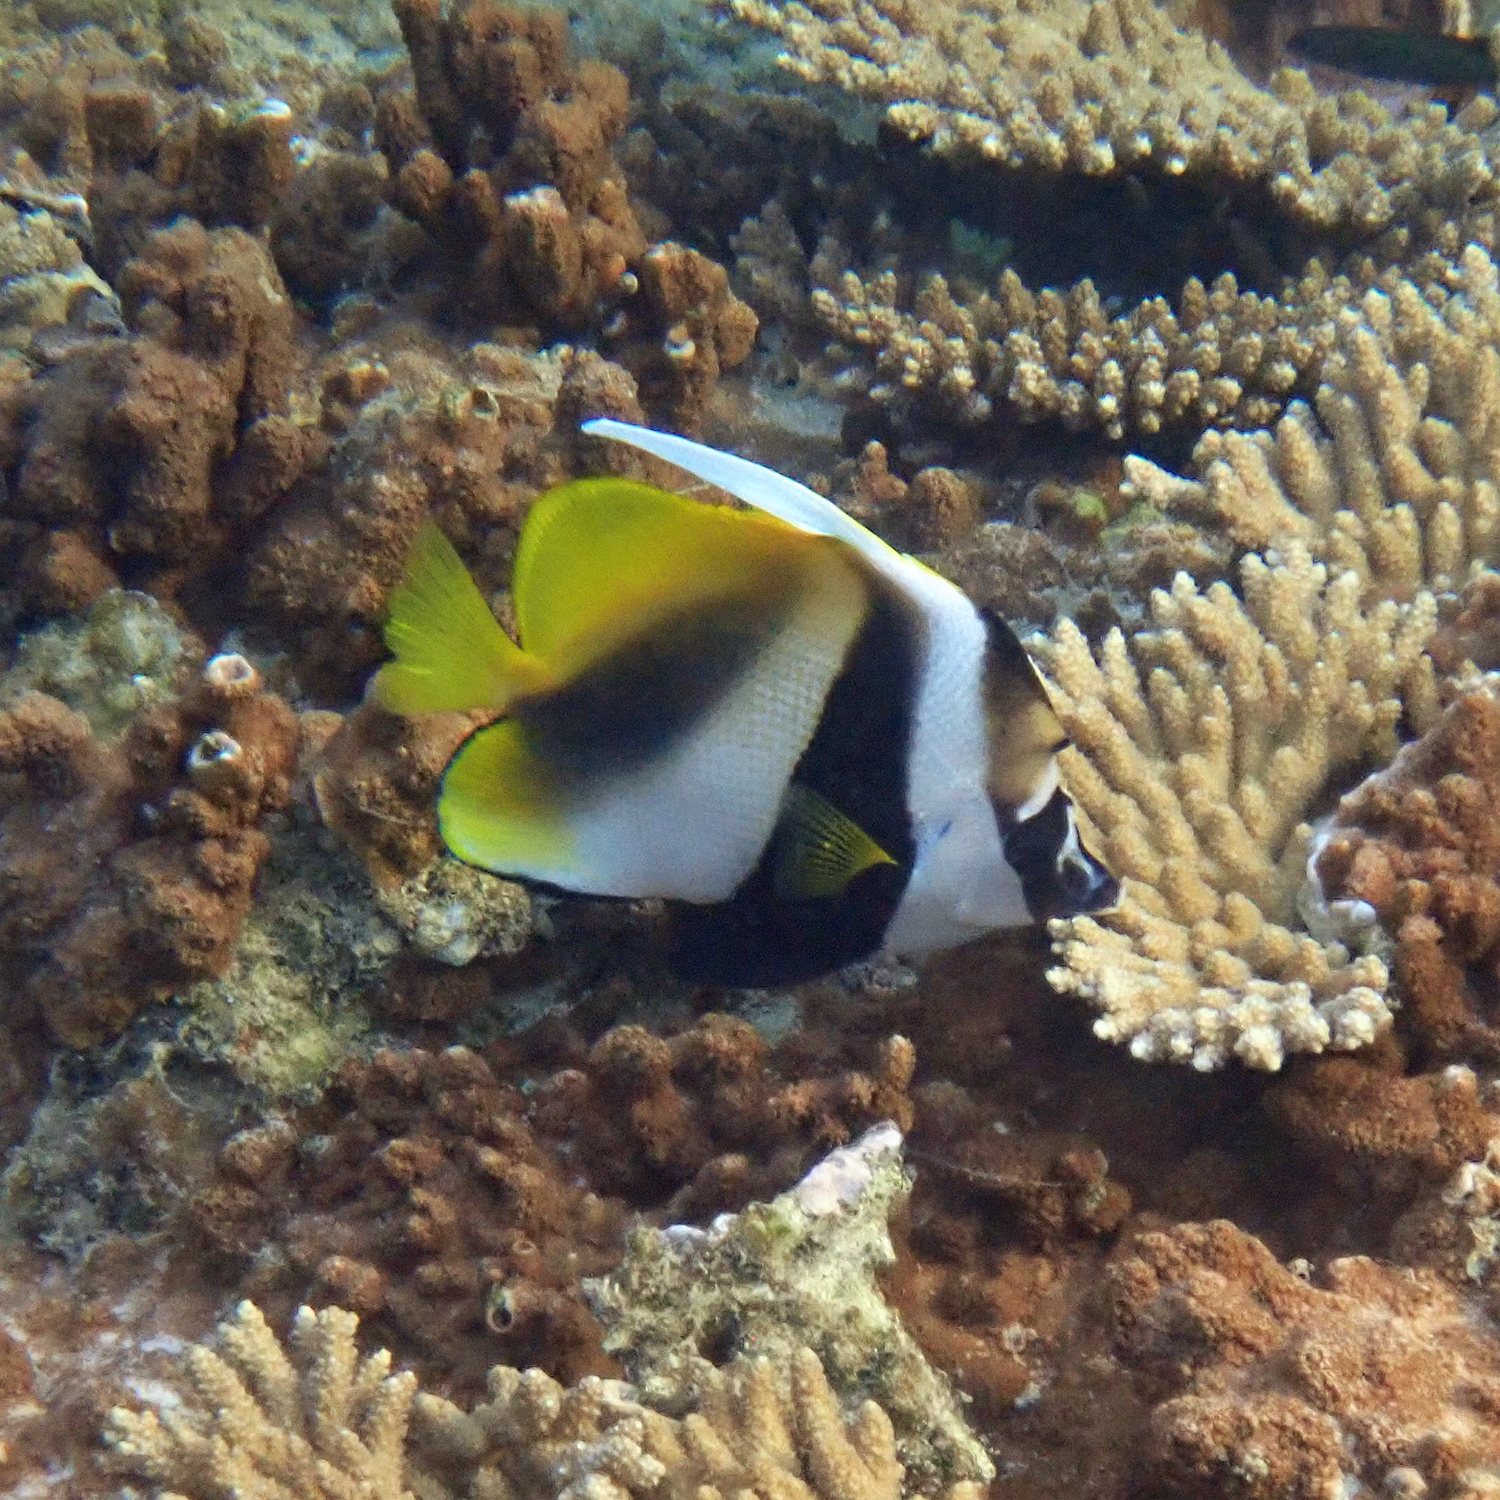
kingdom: Animalia
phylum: Chordata
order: Perciformes
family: Chaetodontidae
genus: Heniochus
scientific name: Heniochus monoceros
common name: Masked bannerfish
